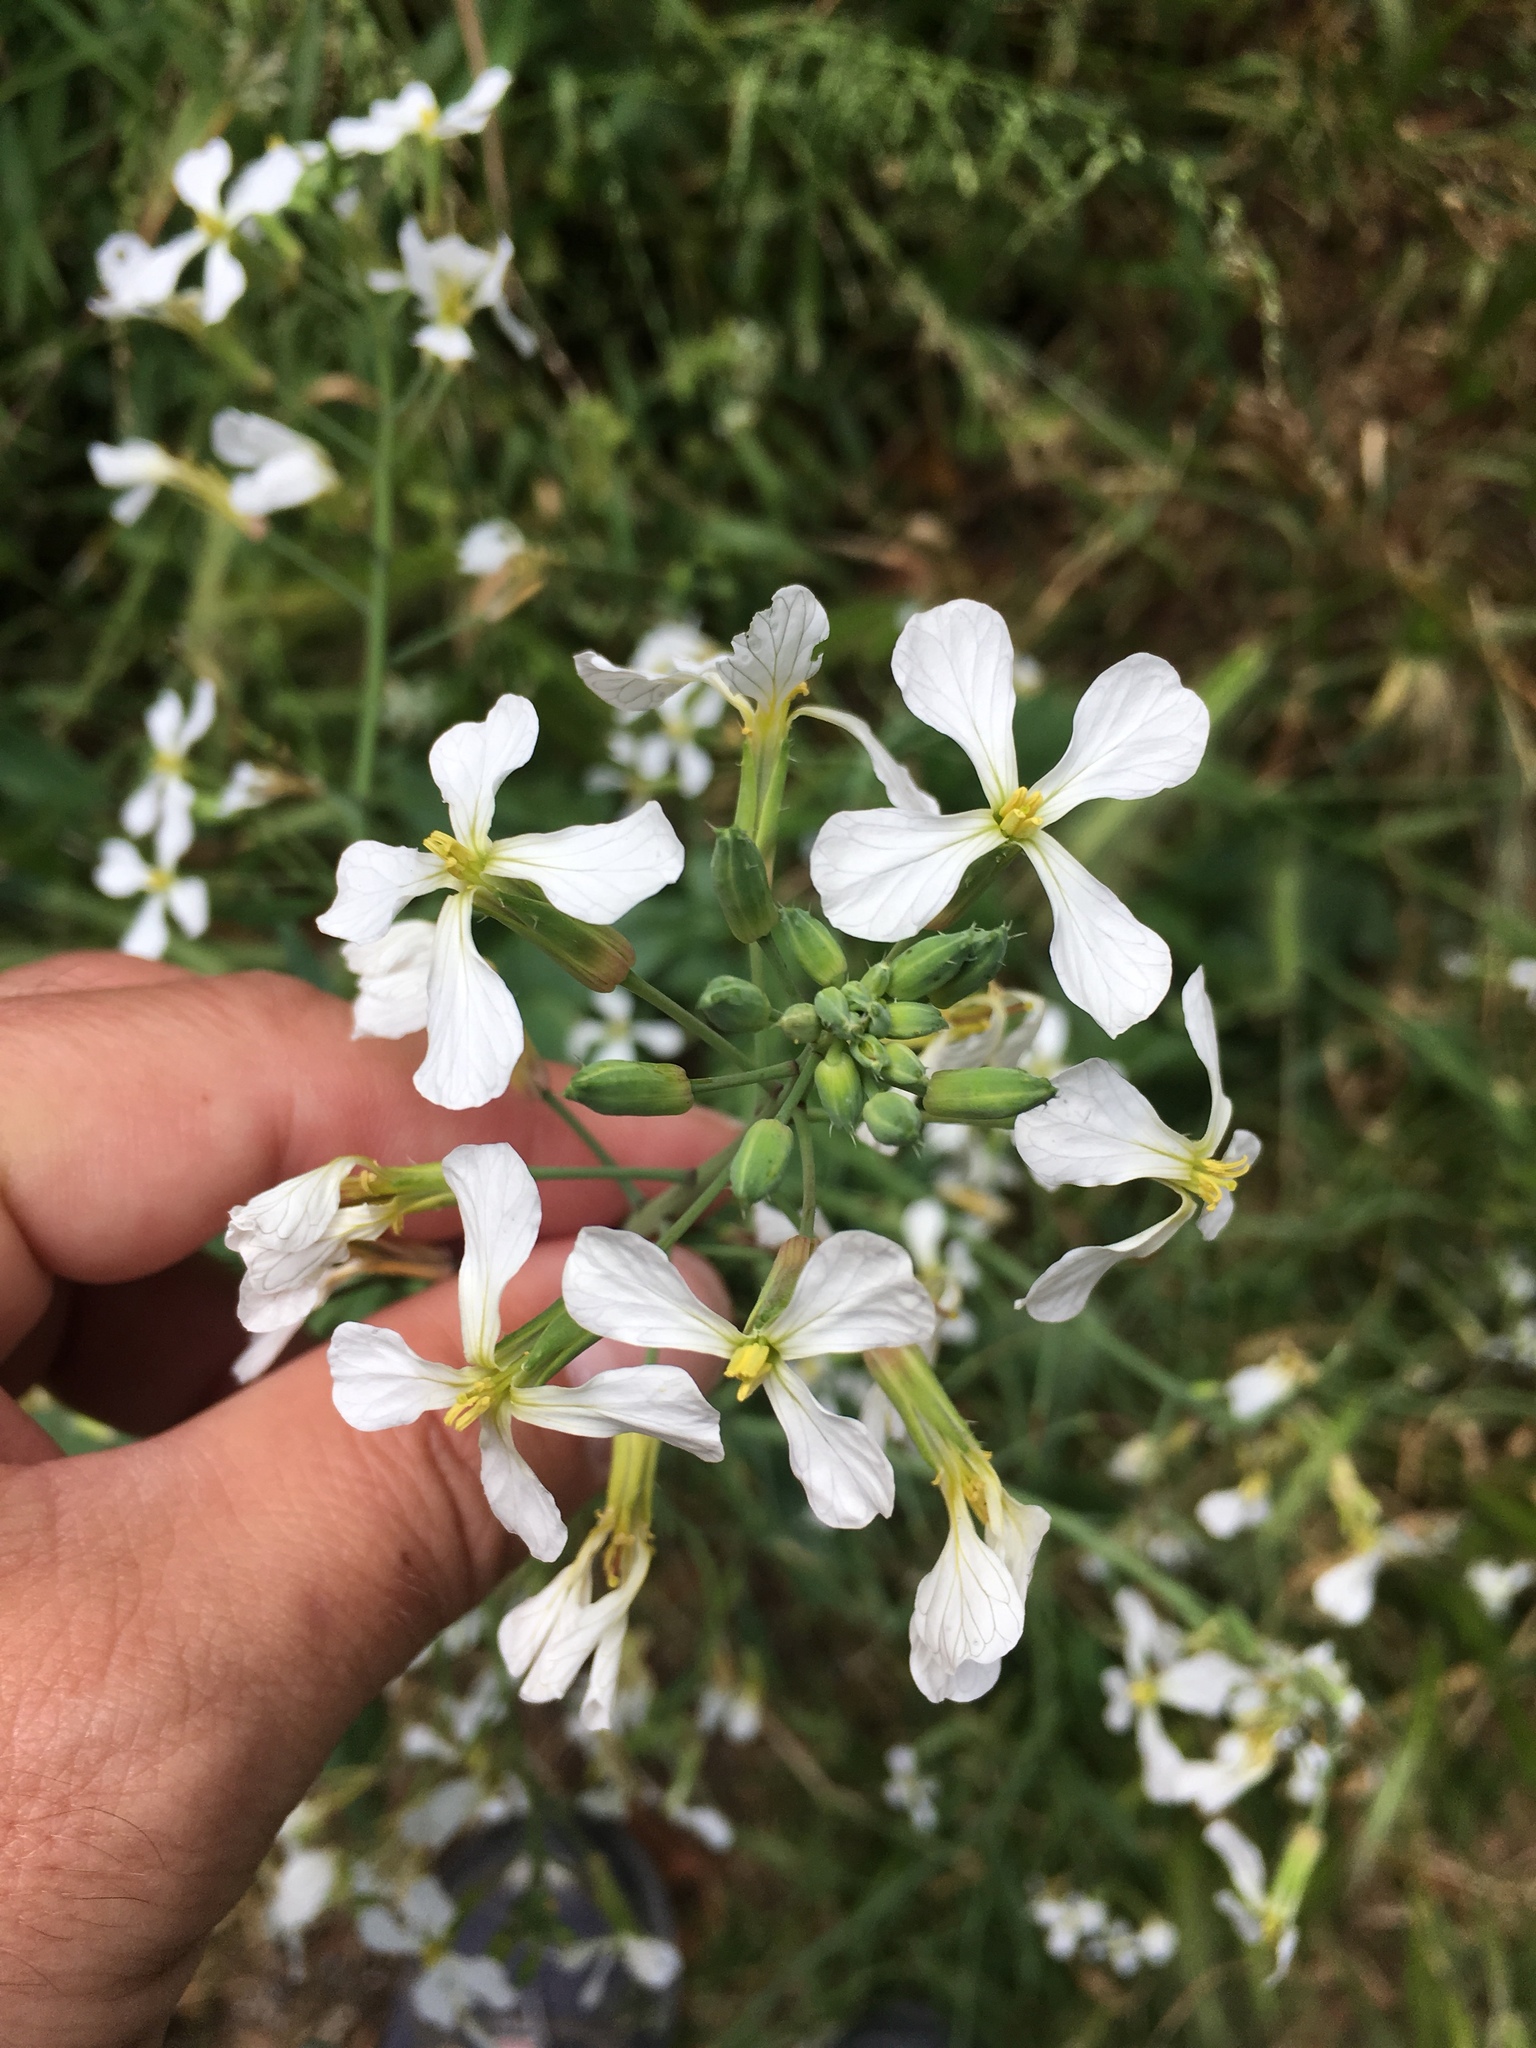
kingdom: Plantae
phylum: Tracheophyta
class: Magnoliopsida
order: Brassicales
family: Brassicaceae
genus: Raphanus
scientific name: Raphanus sativus
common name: Cultivated radish
